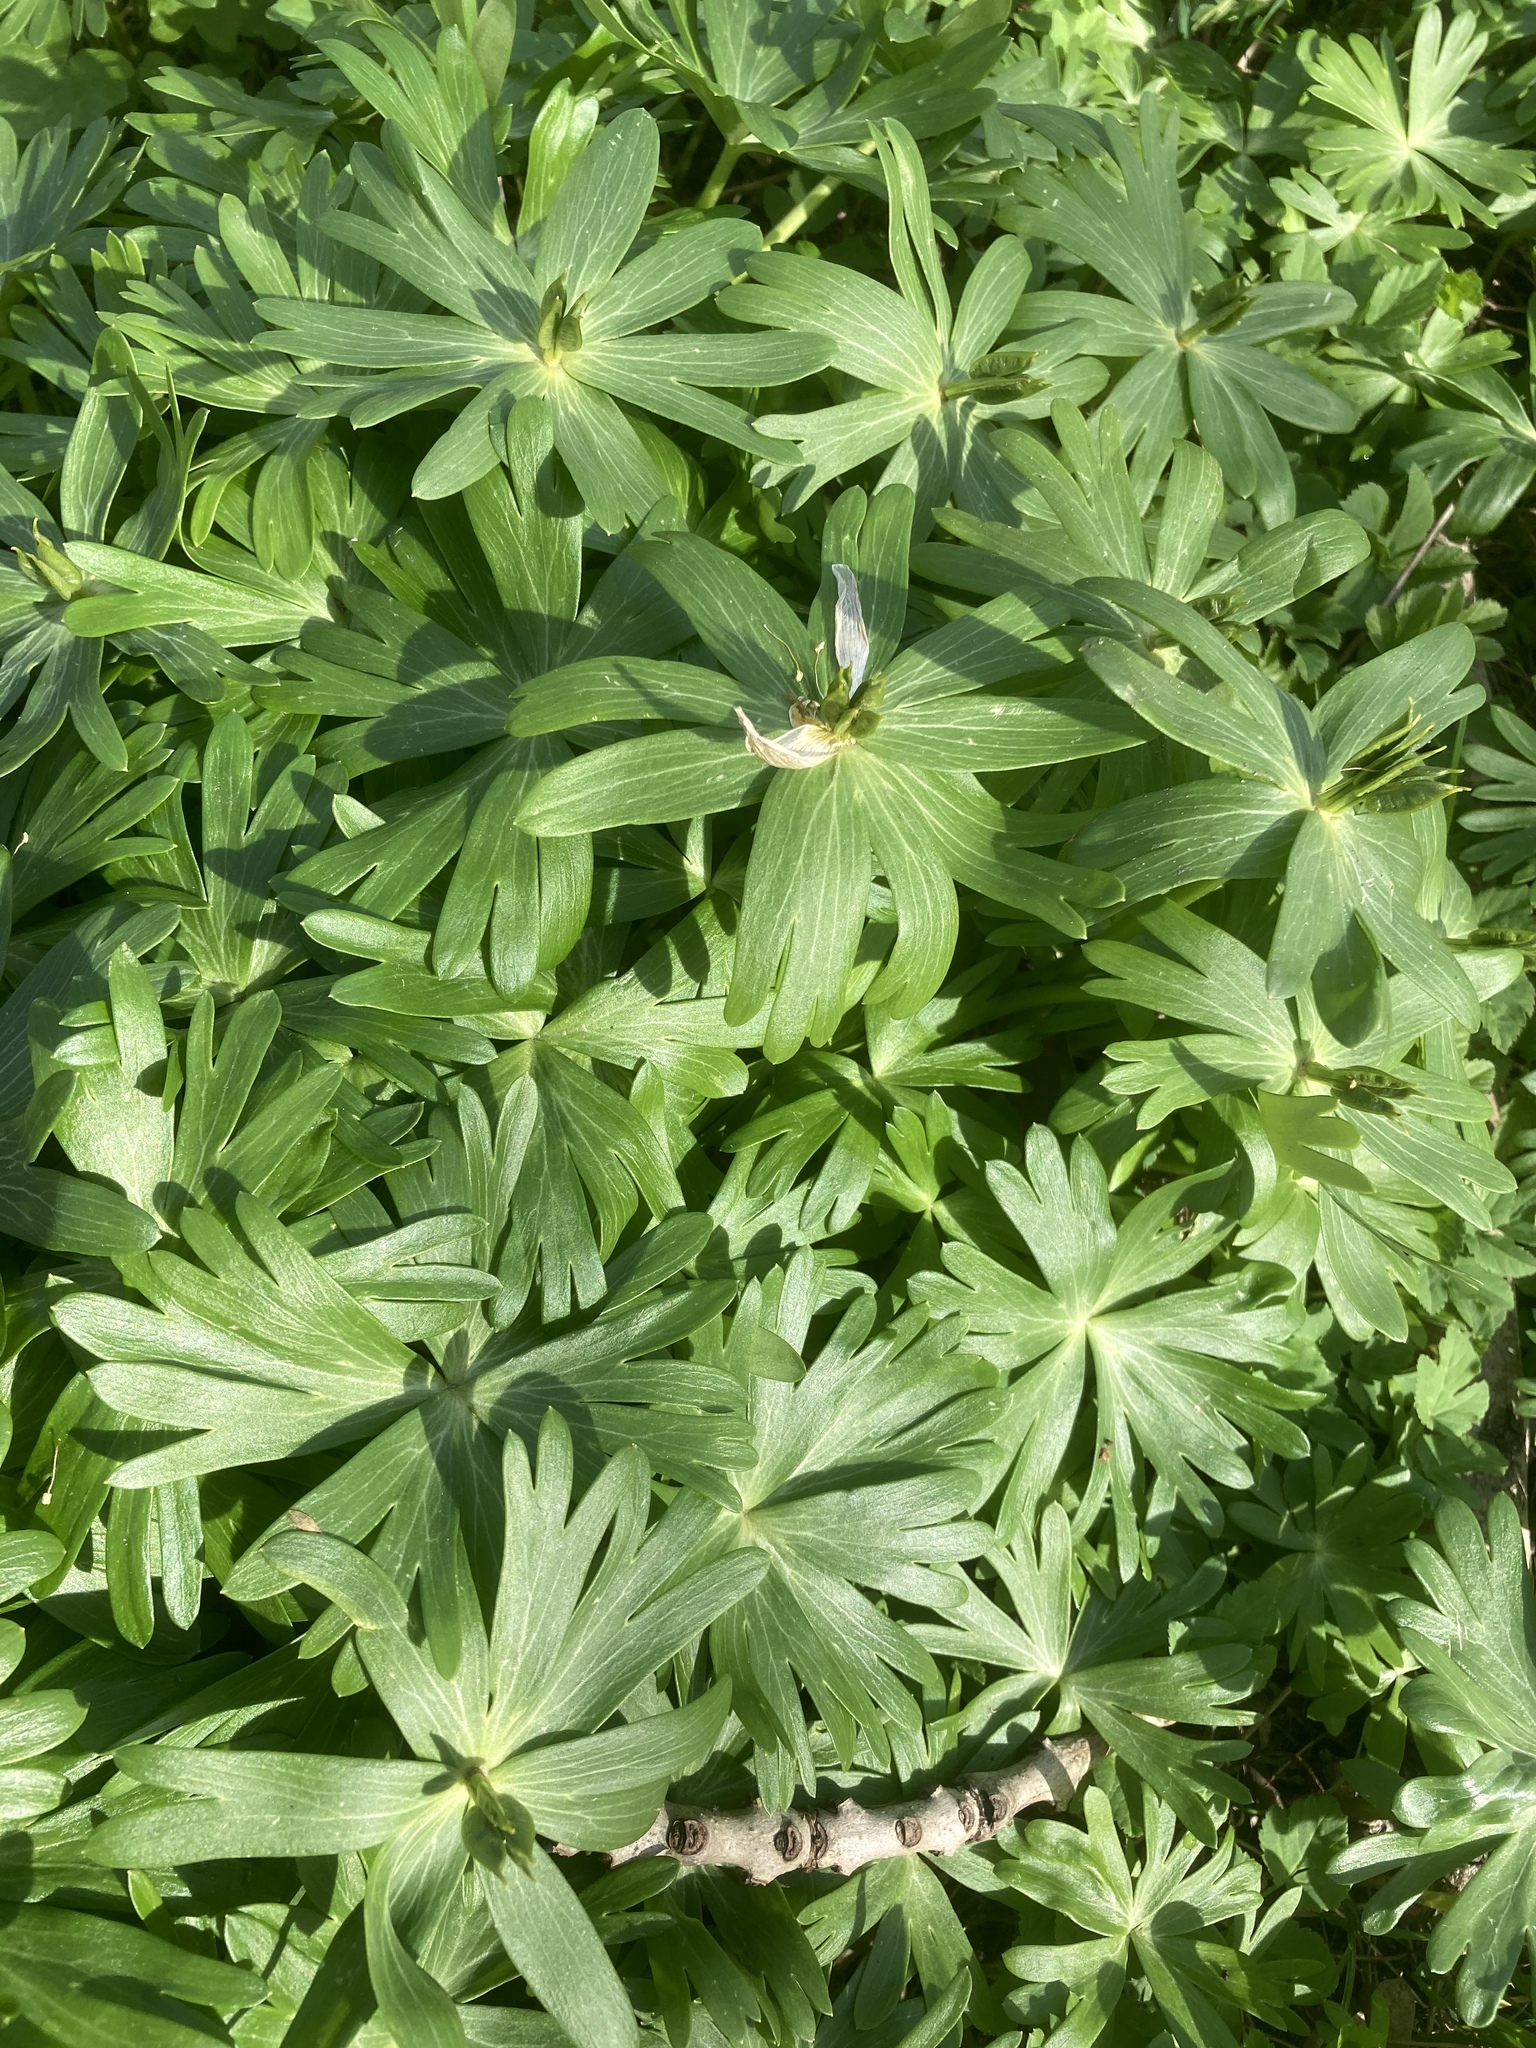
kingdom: Plantae
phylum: Tracheophyta
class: Magnoliopsida
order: Ranunculales
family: Ranunculaceae
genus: Eranthis
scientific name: Eranthis hyemalis
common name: Winter aconite
